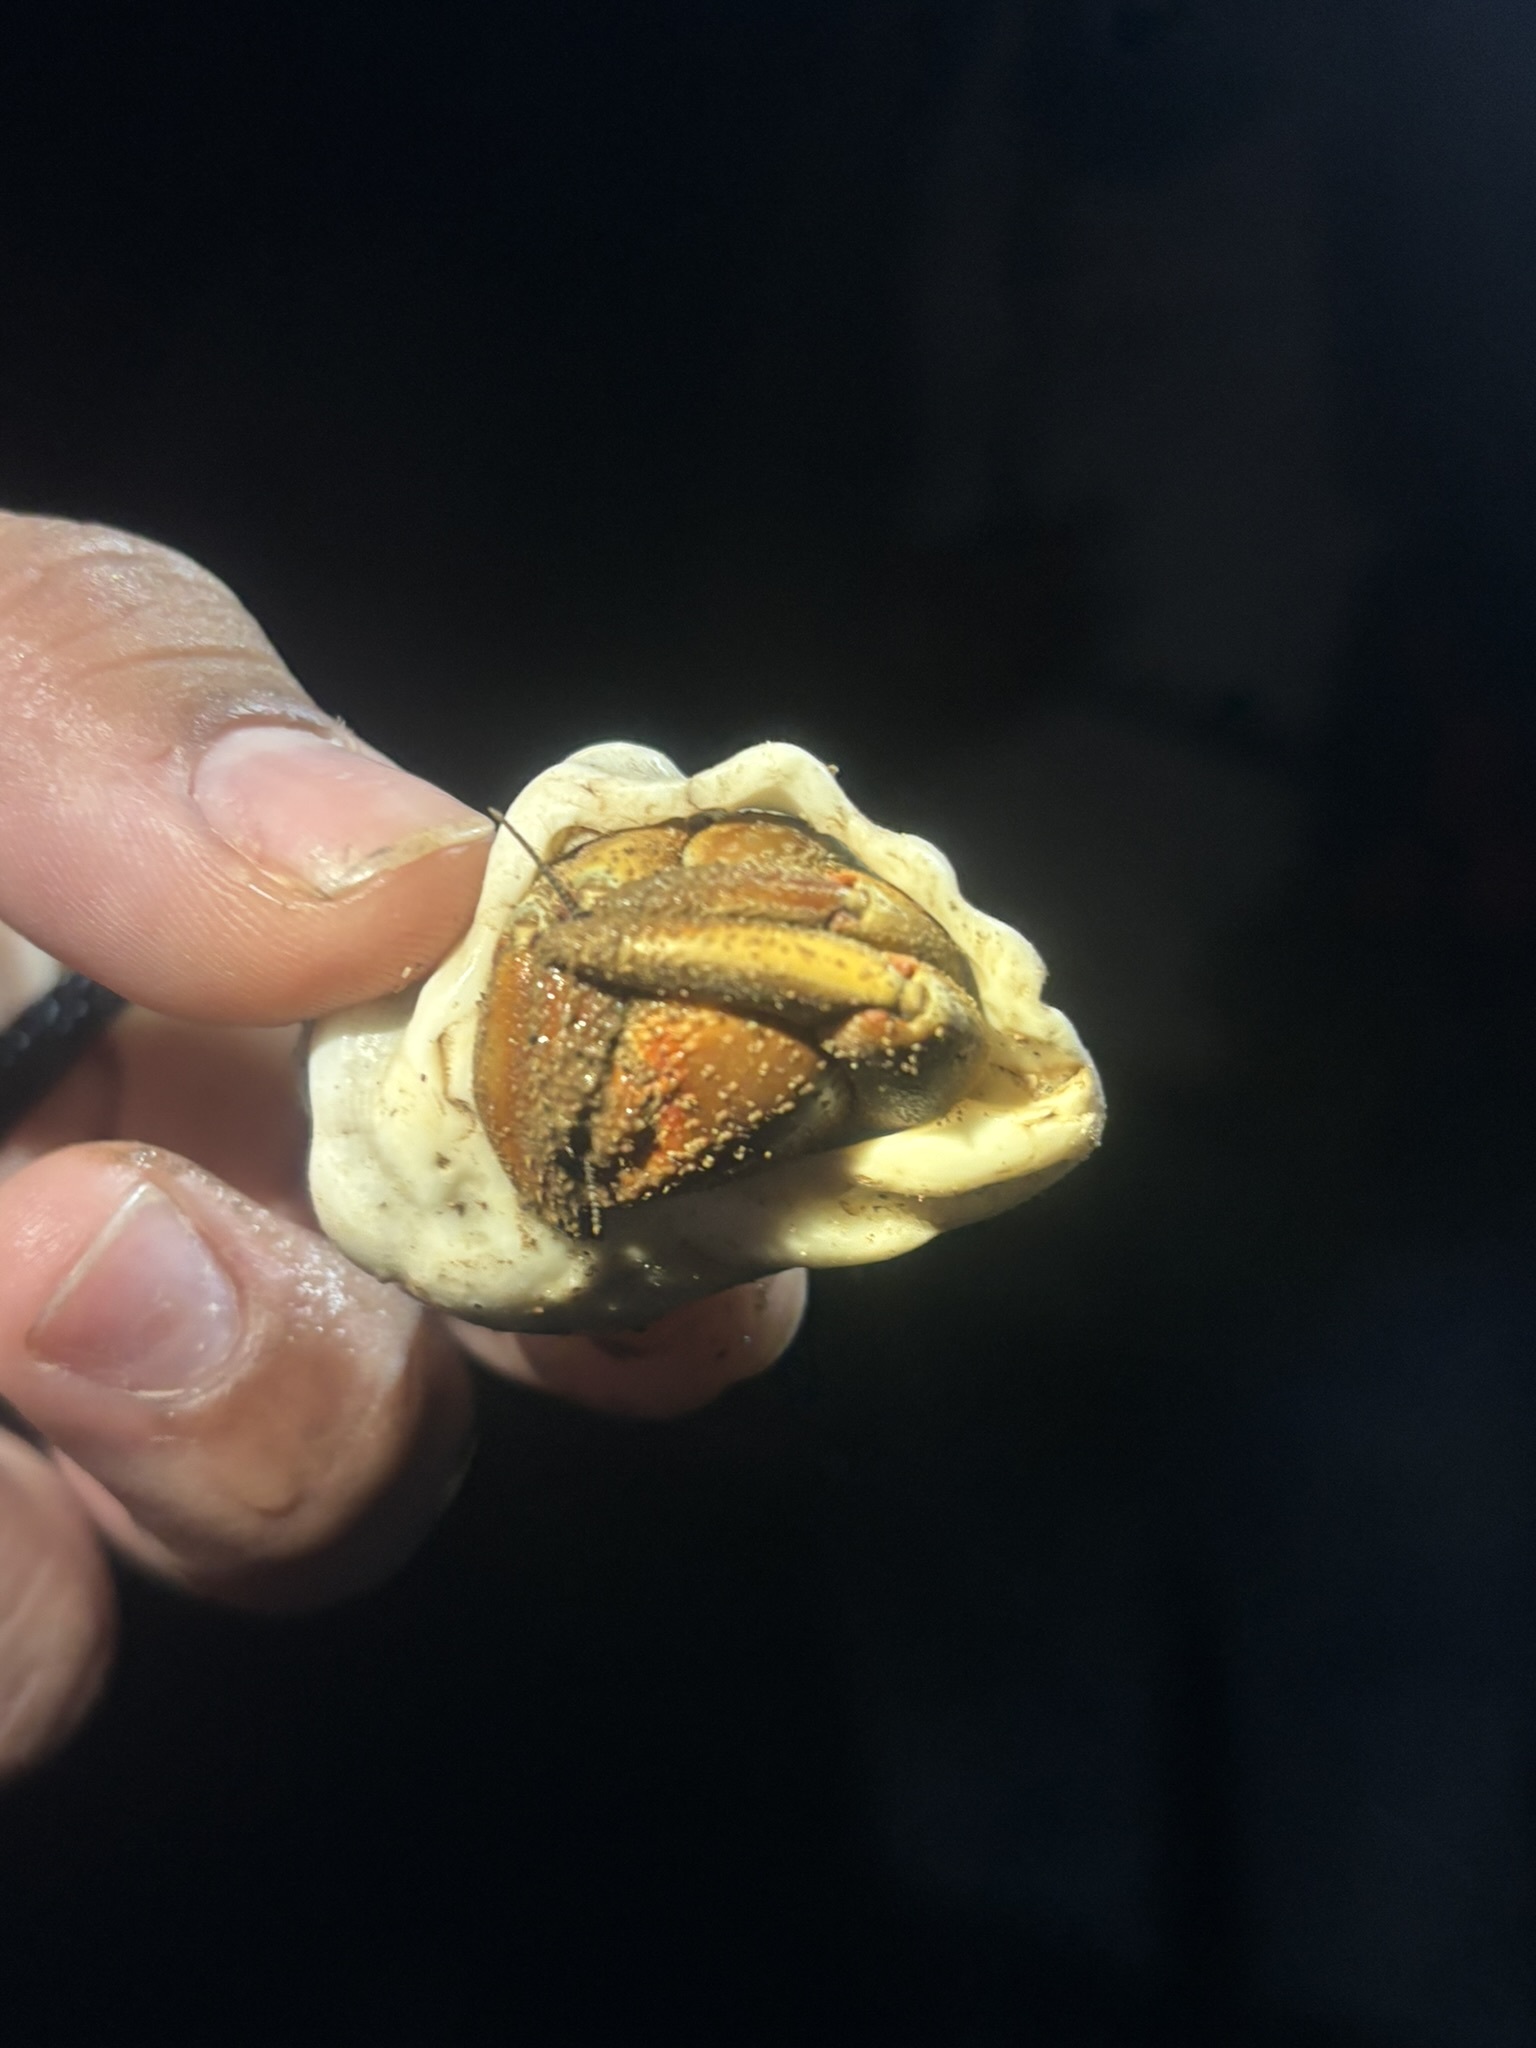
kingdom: Animalia
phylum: Arthropoda
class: Malacostraca
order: Decapoda
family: Coenobitidae
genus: Coenobita
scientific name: Coenobita compressus
